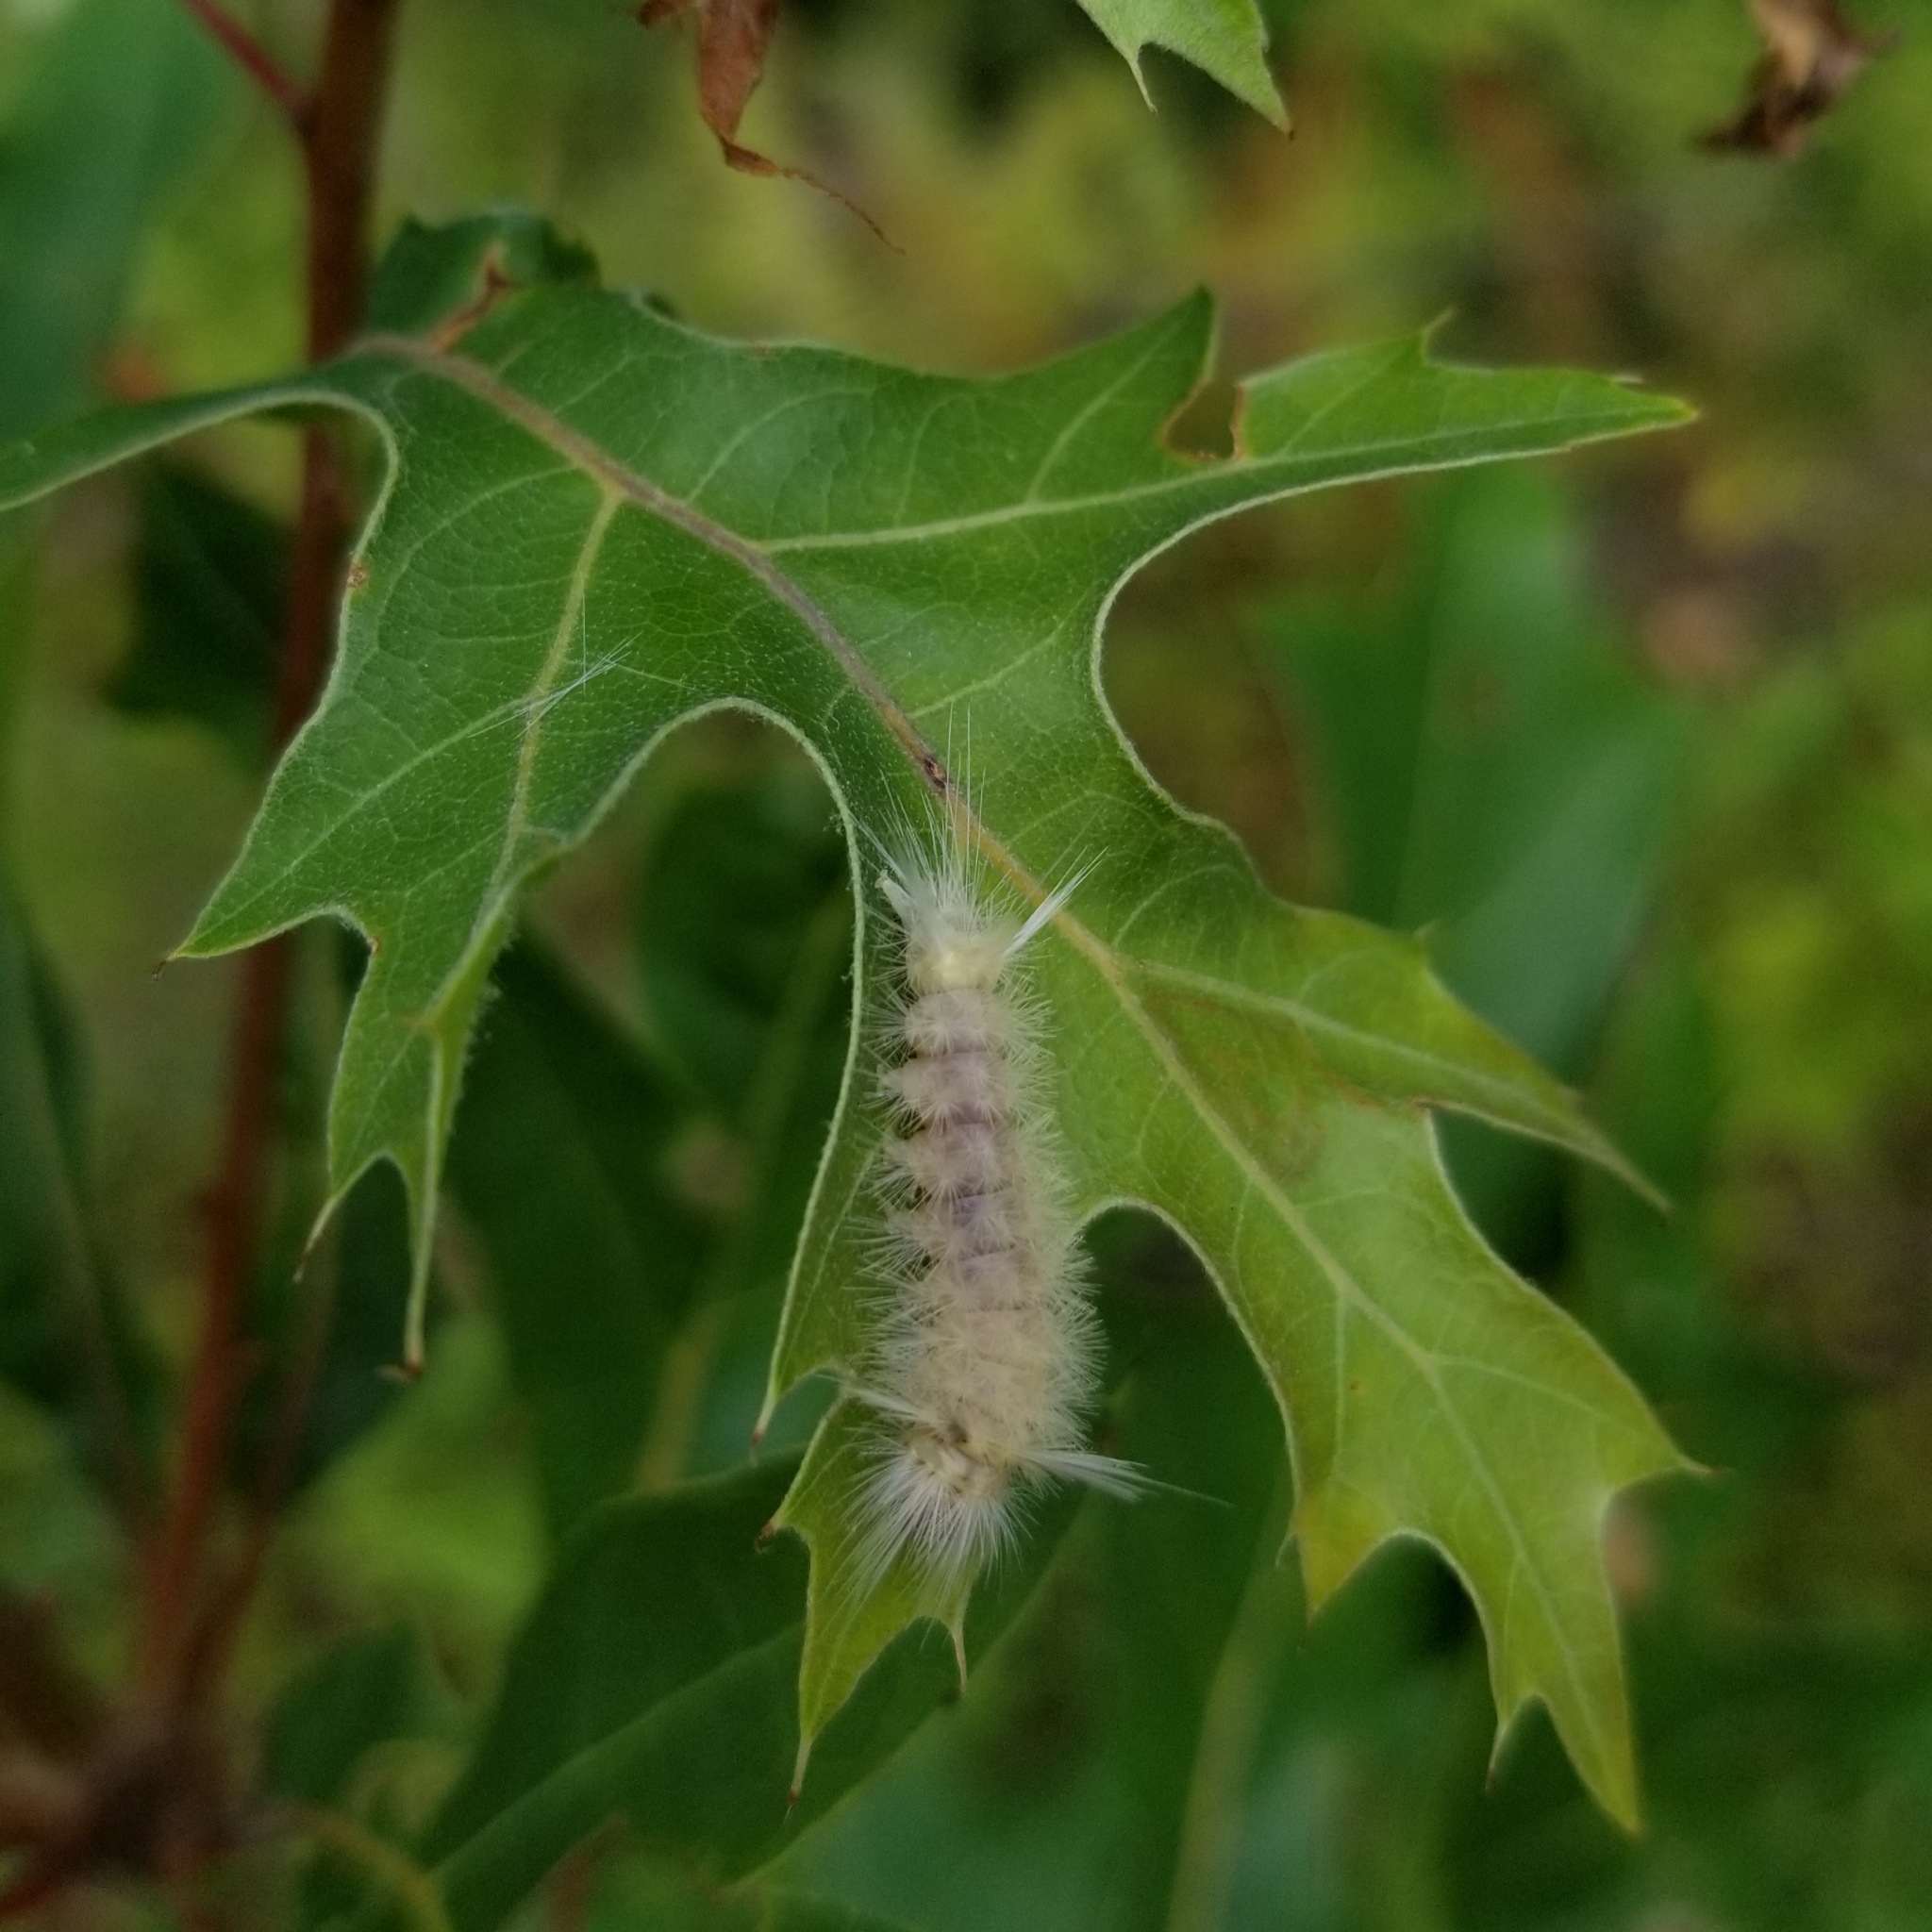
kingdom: Animalia
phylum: Arthropoda
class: Insecta
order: Lepidoptera
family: Erebidae
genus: Halysidota
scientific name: Halysidota tessellaris
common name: Banded tussock moth
